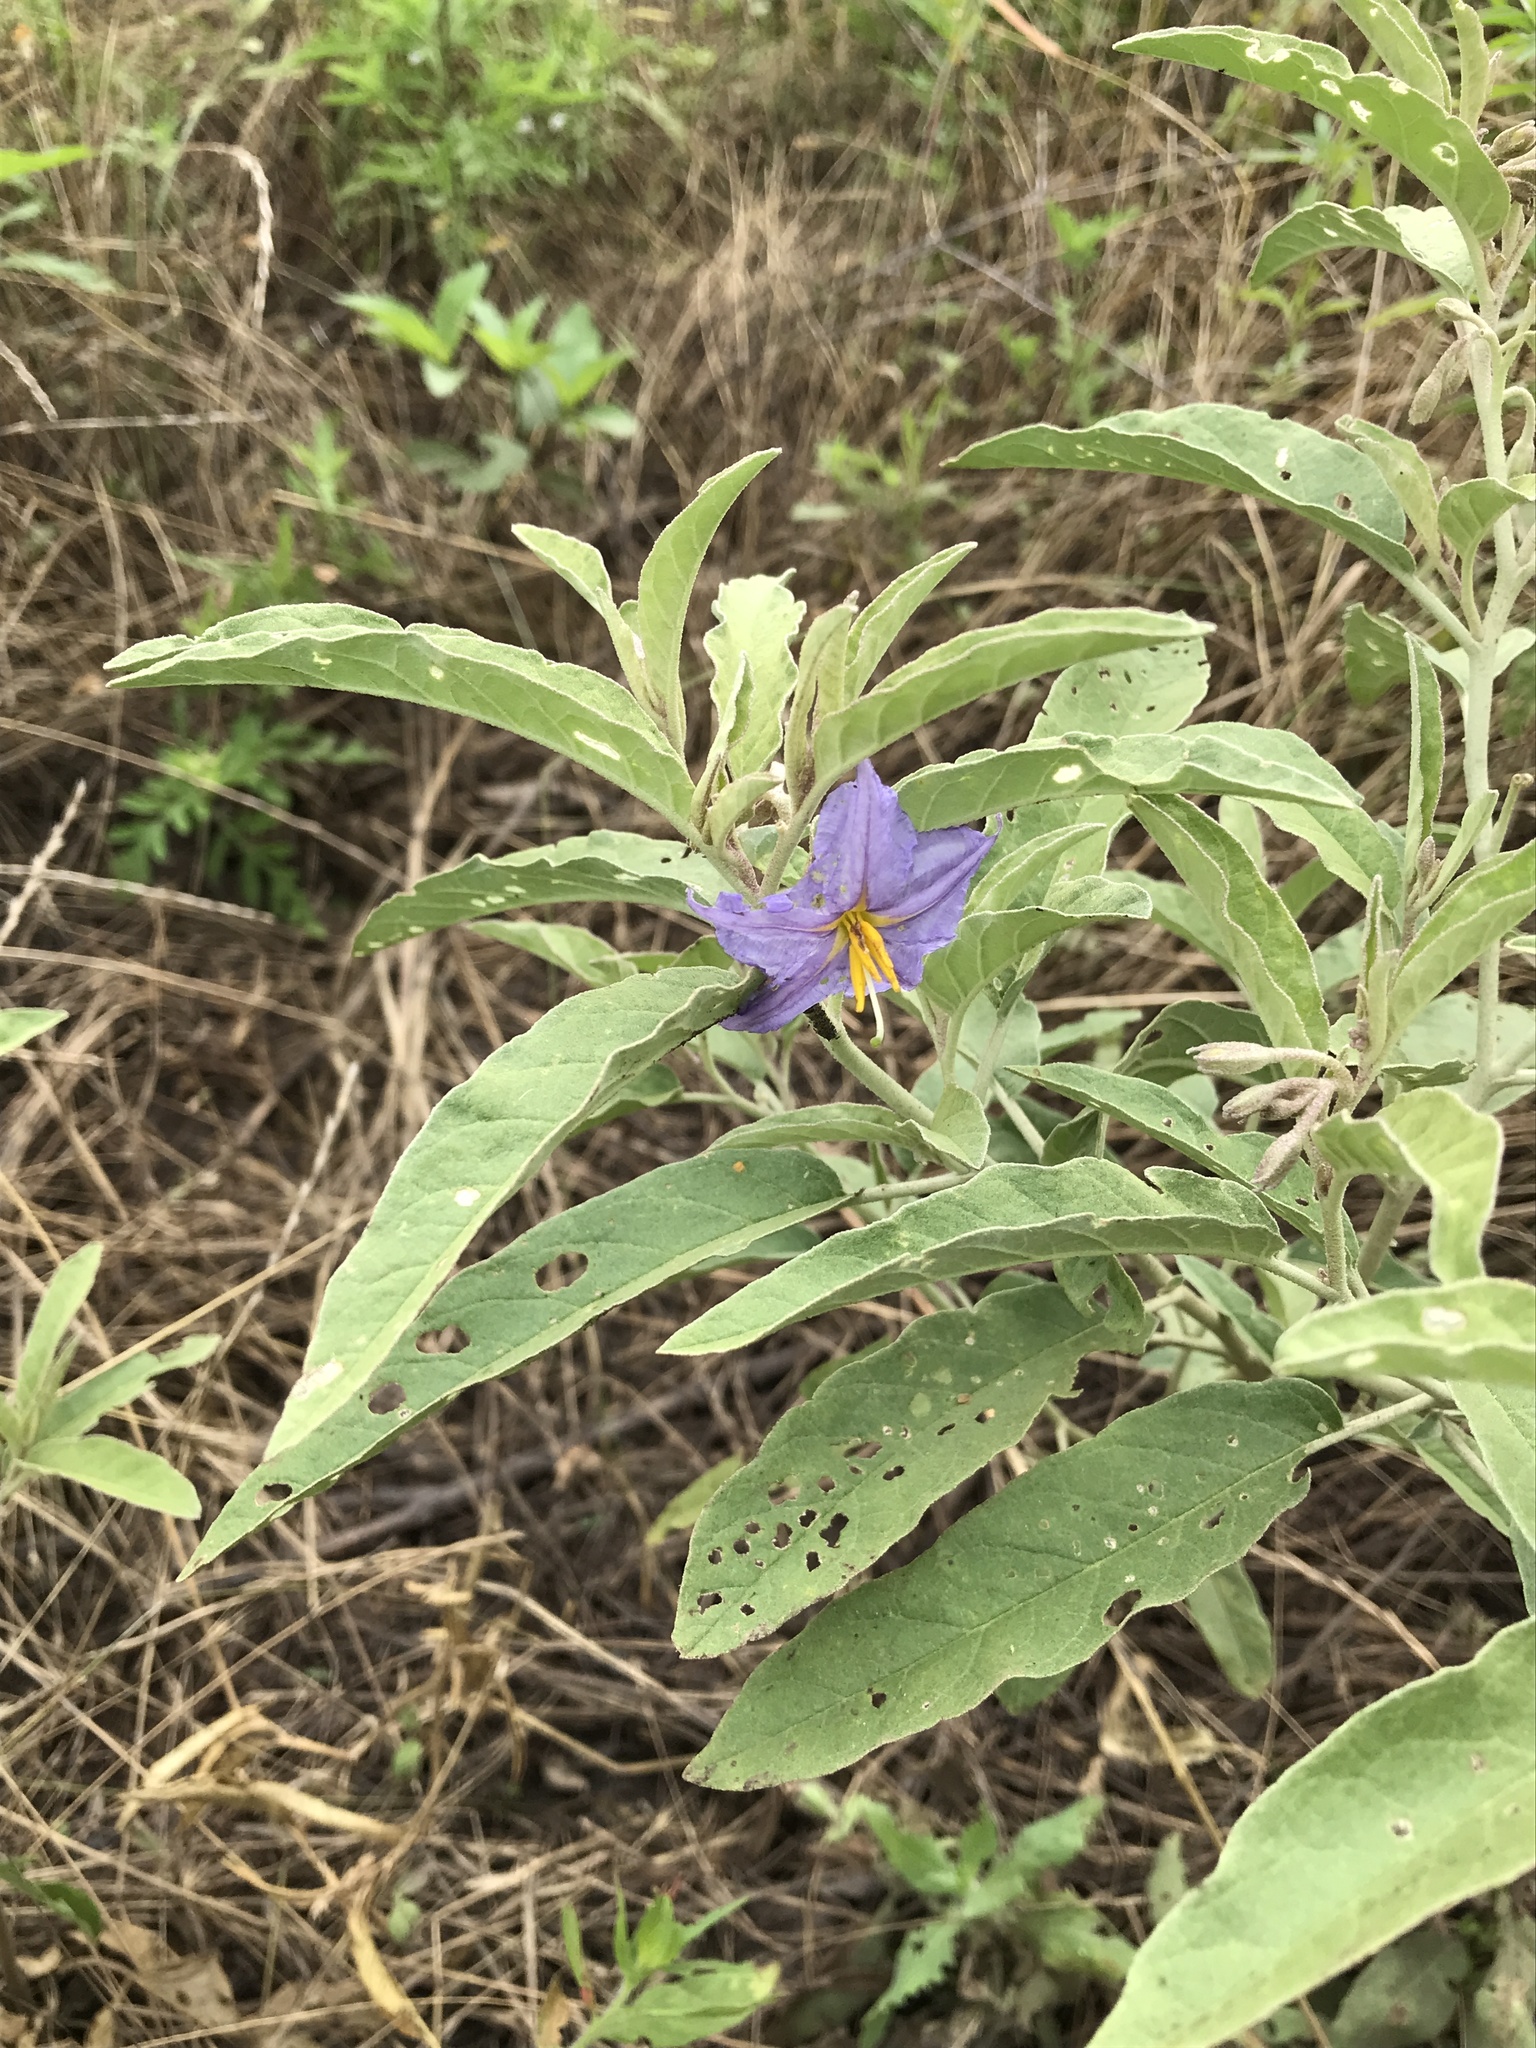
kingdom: Plantae
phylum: Tracheophyta
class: Magnoliopsida
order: Solanales
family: Solanaceae
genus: Solanum
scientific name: Solanum elaeagnifolium
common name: Silverleaf nightshade
